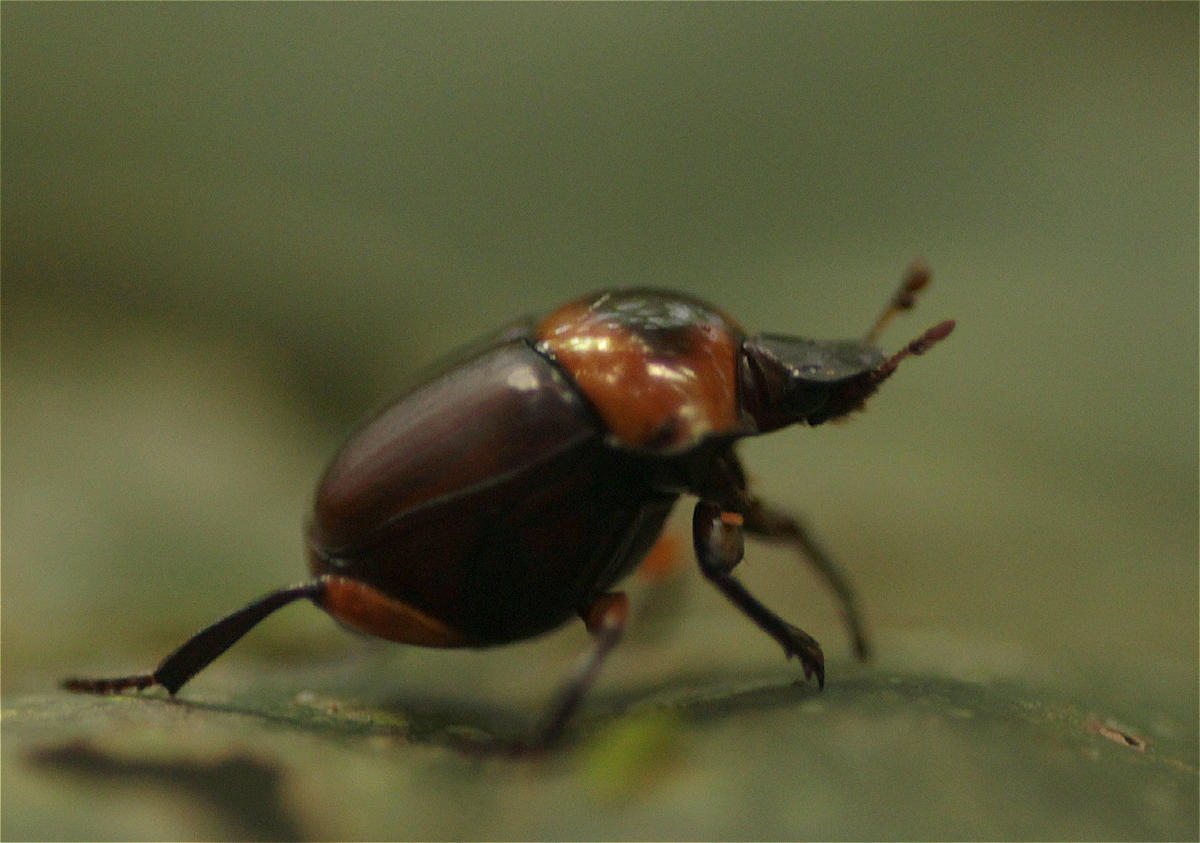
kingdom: Animalia
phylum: Arthropoda
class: Insecta
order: Coleoptera
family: Scarabaeidae
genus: Canthon
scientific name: Canthon luteicollis
